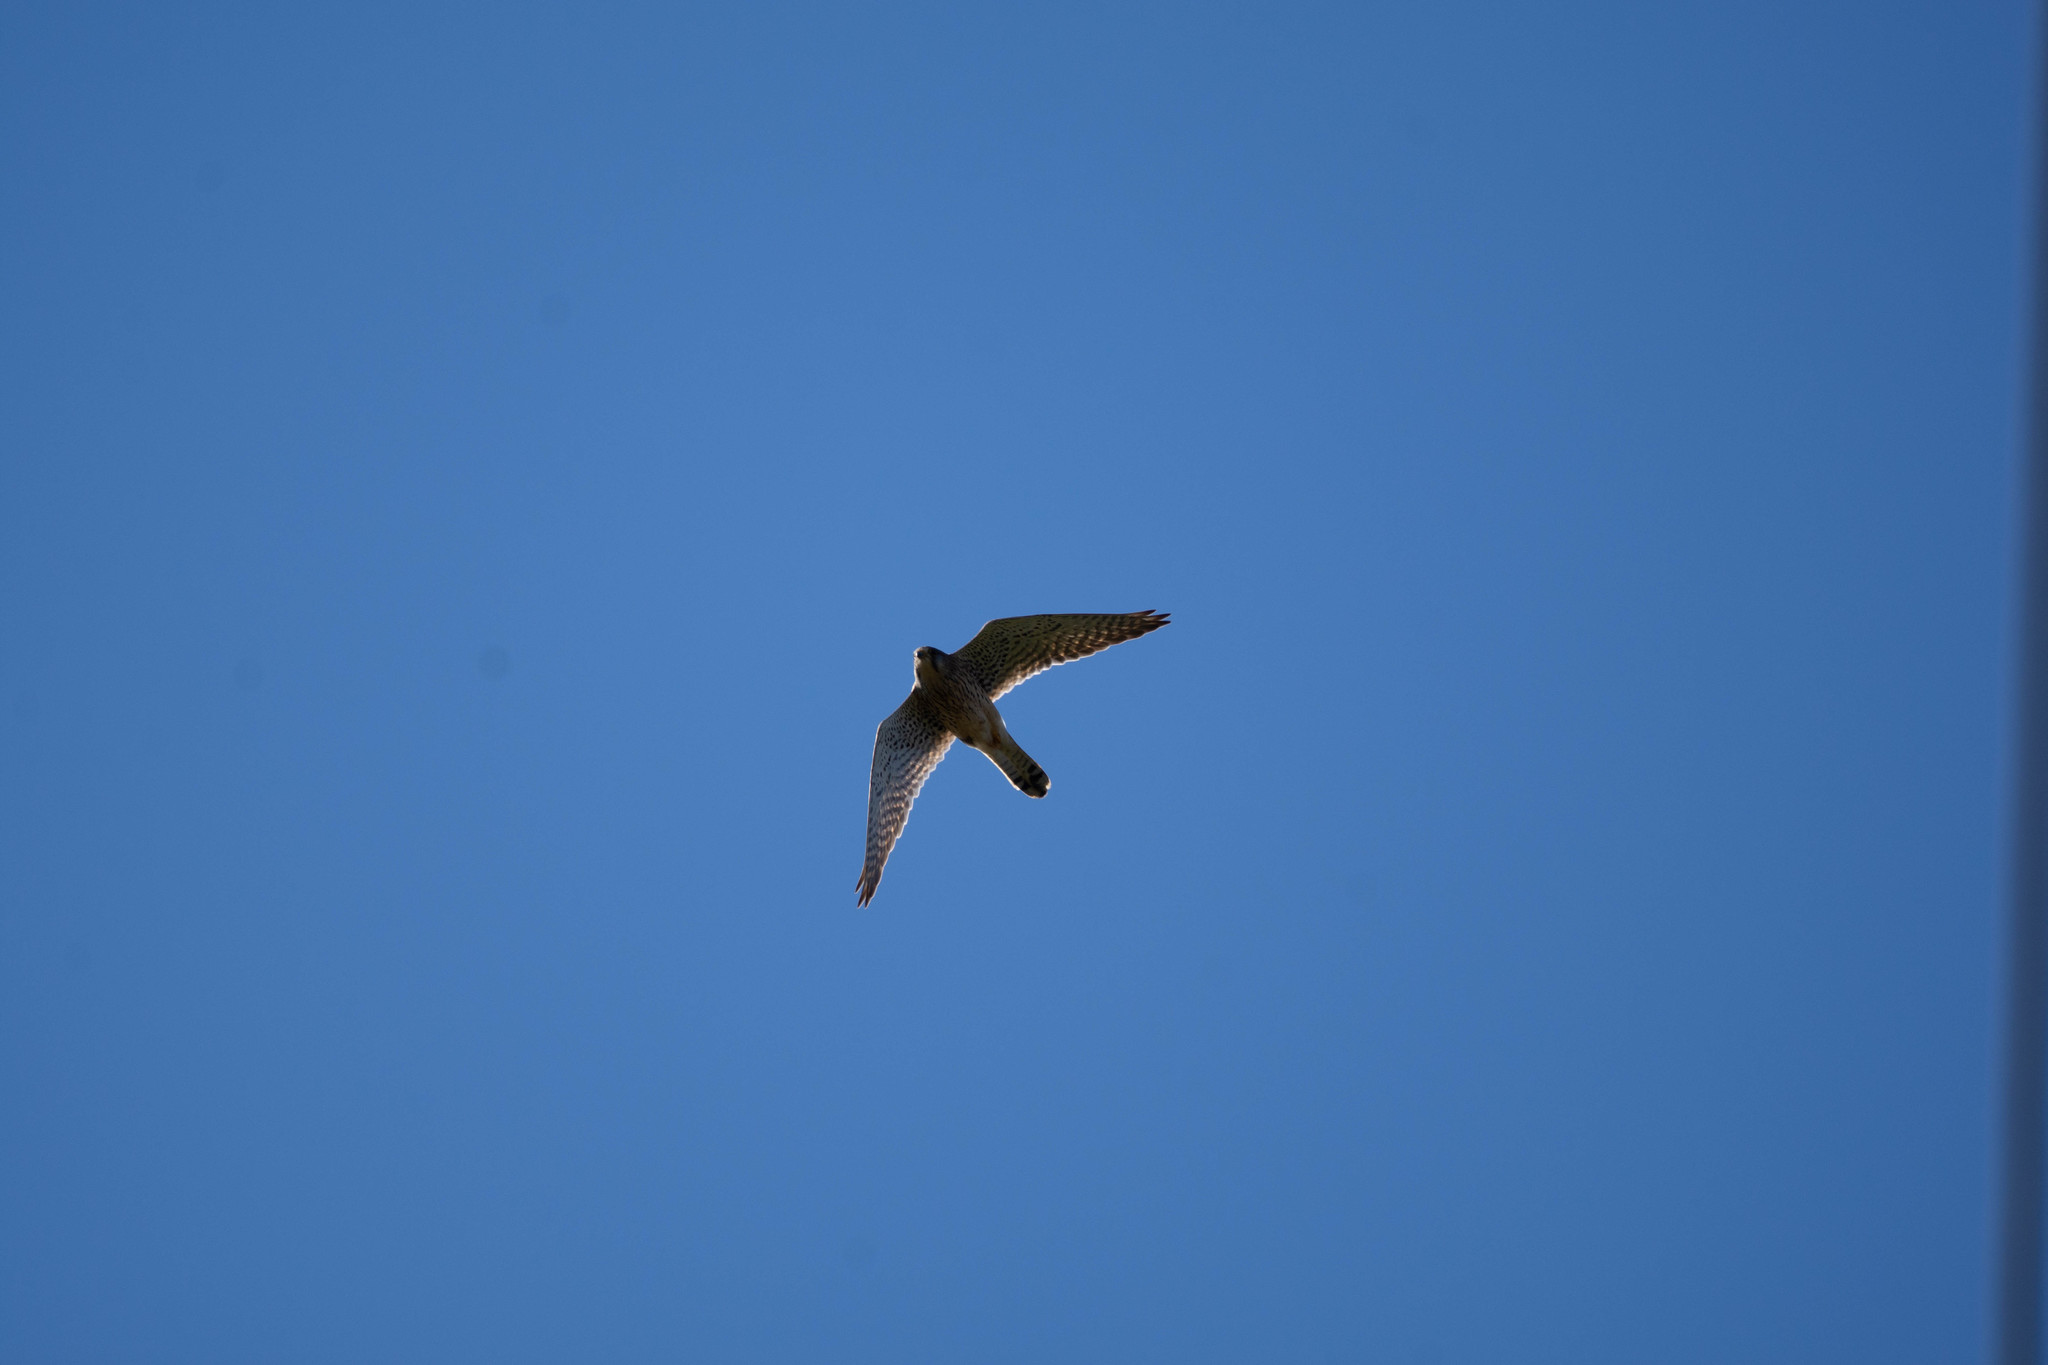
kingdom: Animalia
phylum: Chordata
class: Aves
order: Falconiformes
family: Falconidae
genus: Falco
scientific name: Falco tinnunculus
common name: Common kestrel
